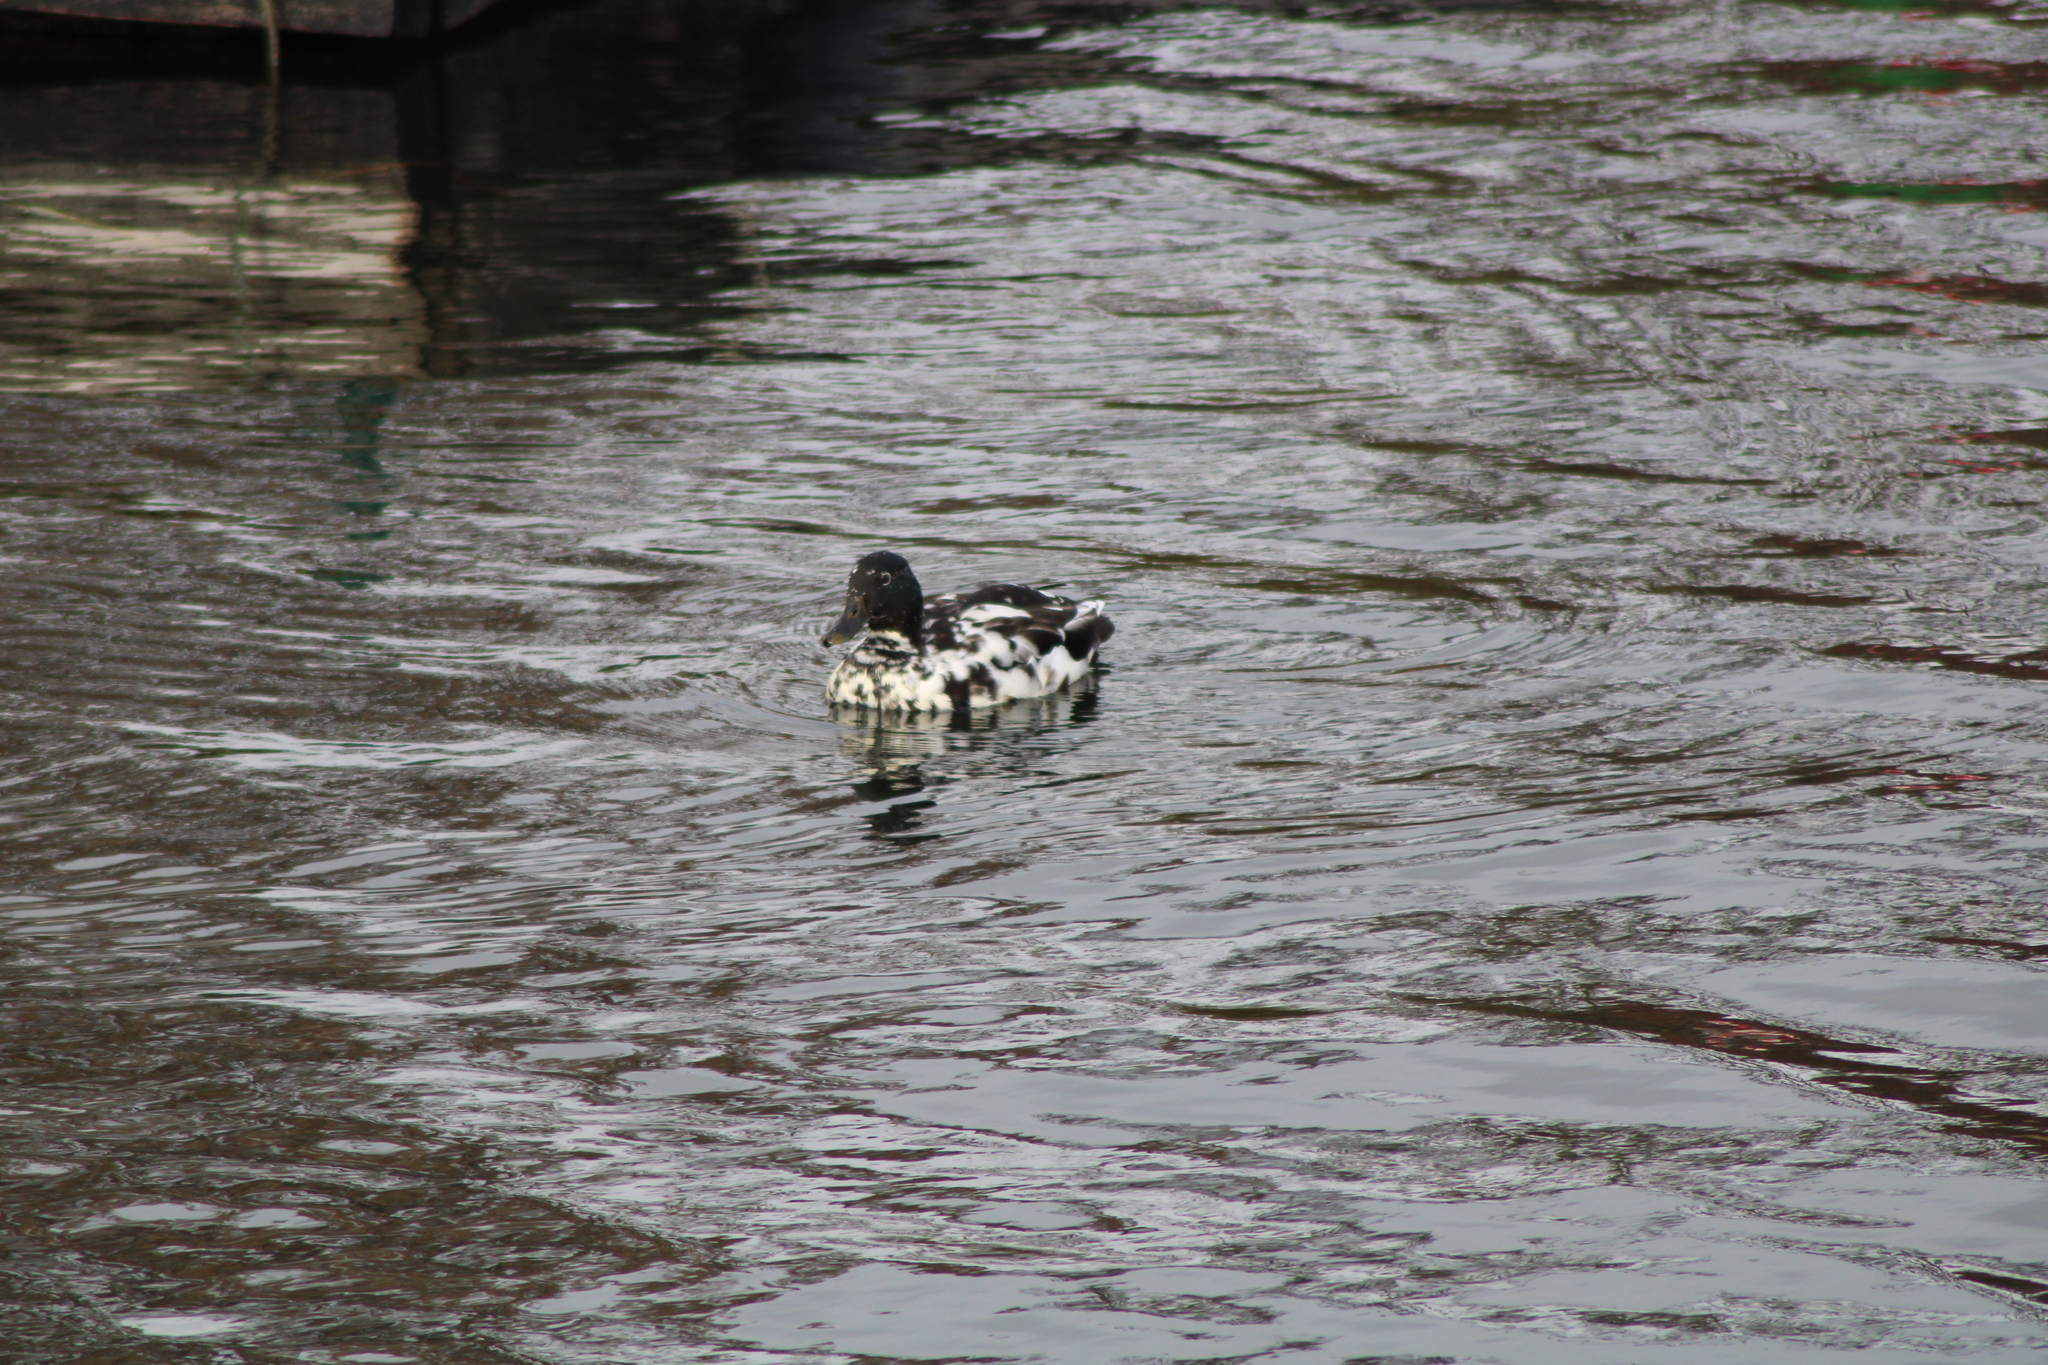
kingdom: Animalia
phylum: Chordata
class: Aves
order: Anseriformes
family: Anatidae
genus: Anas
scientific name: Anas platyrhynchos
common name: Mallard
